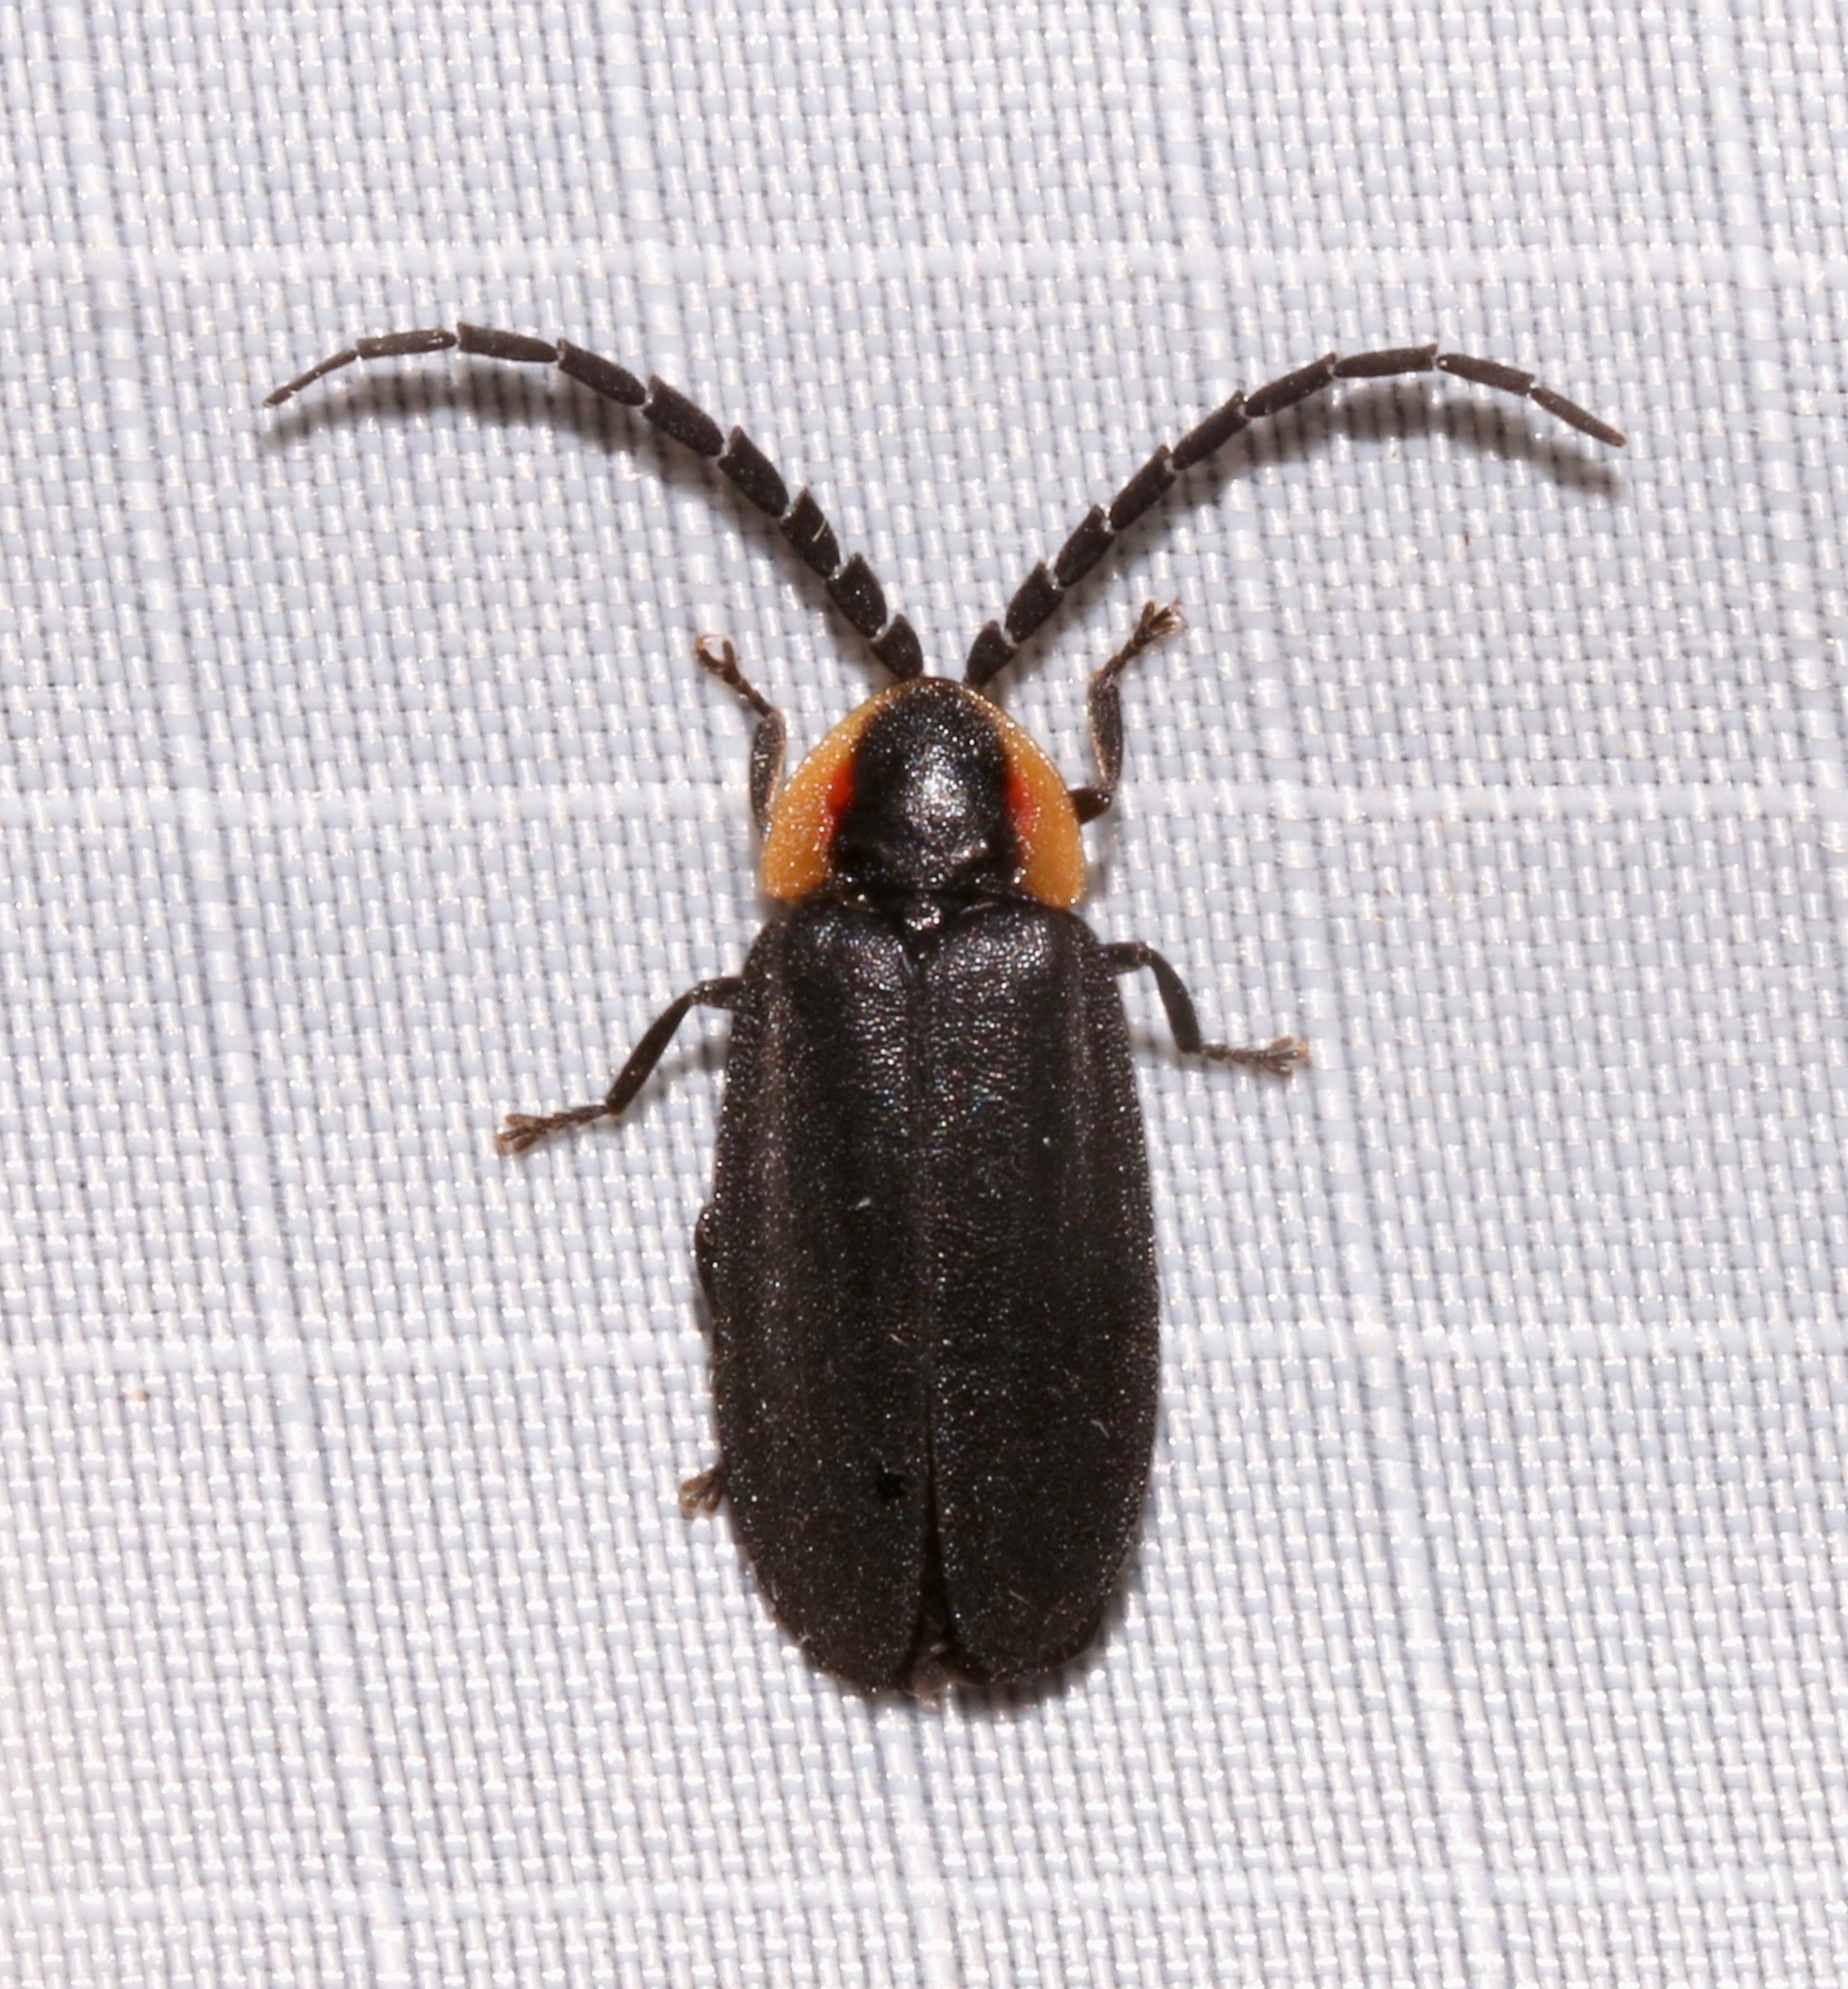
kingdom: Animalia
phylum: Arthropoda
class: Insecta
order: Coleoptera
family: Lampyridae
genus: Lucidota
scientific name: Lucidota atra
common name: Black firefly
